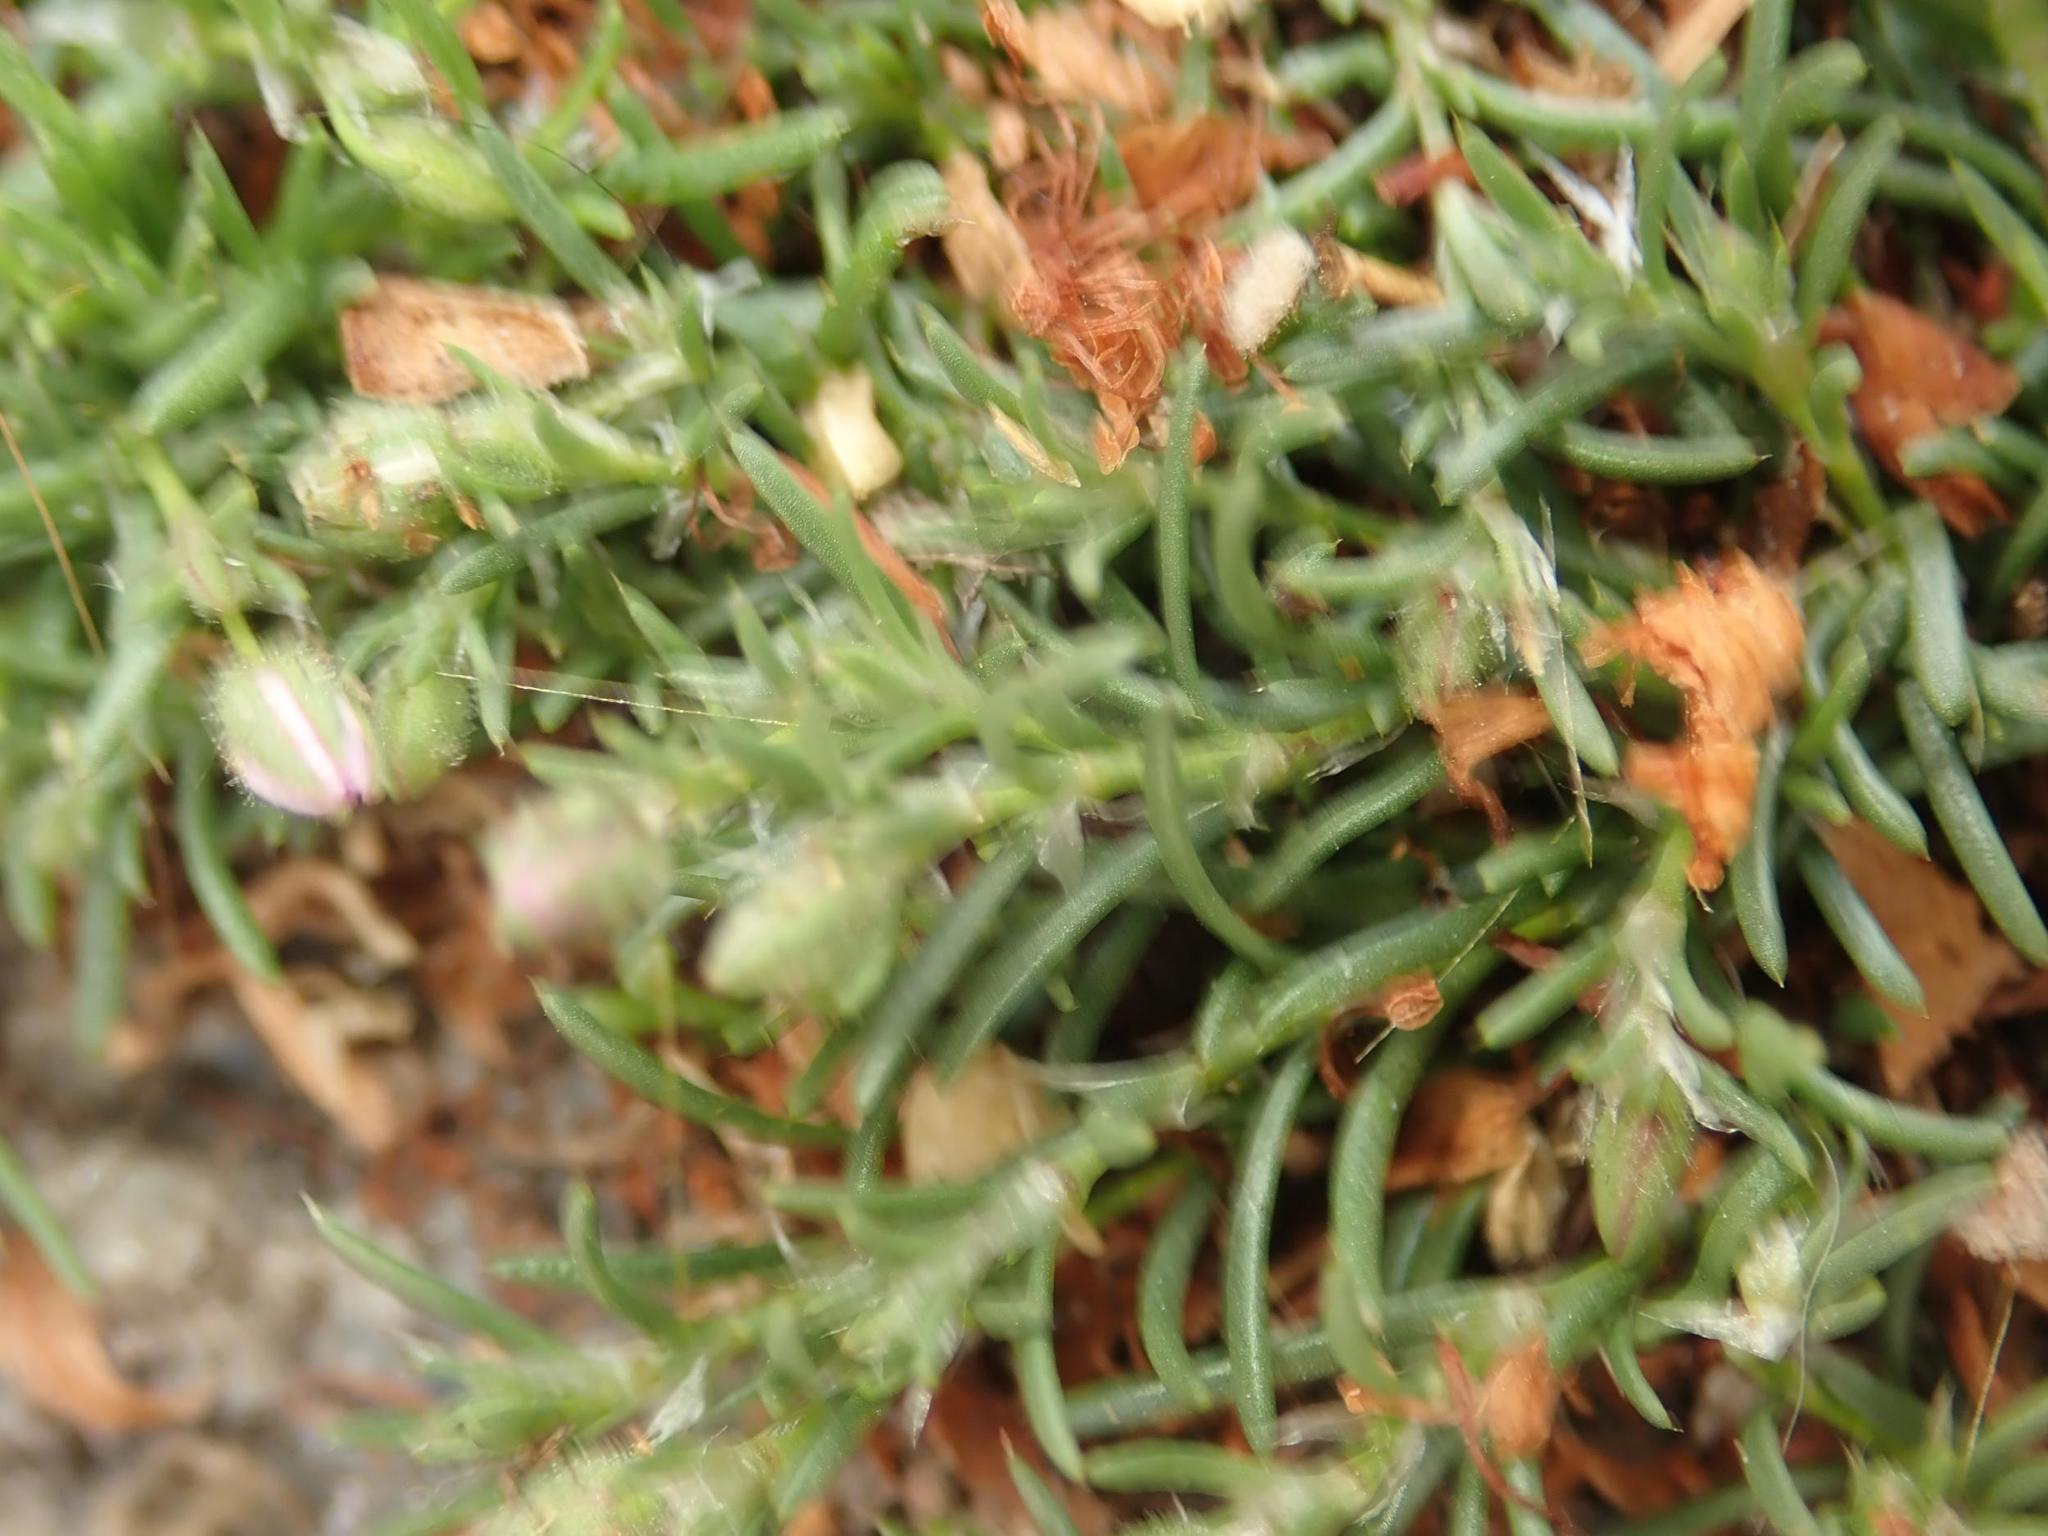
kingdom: Plantae
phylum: Tracheophyta
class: Magnoliopsida
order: Caryophyllales
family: Caryophyllaceae
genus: Spergularia
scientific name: Spergularia rubra
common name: Red sand-spurrey
